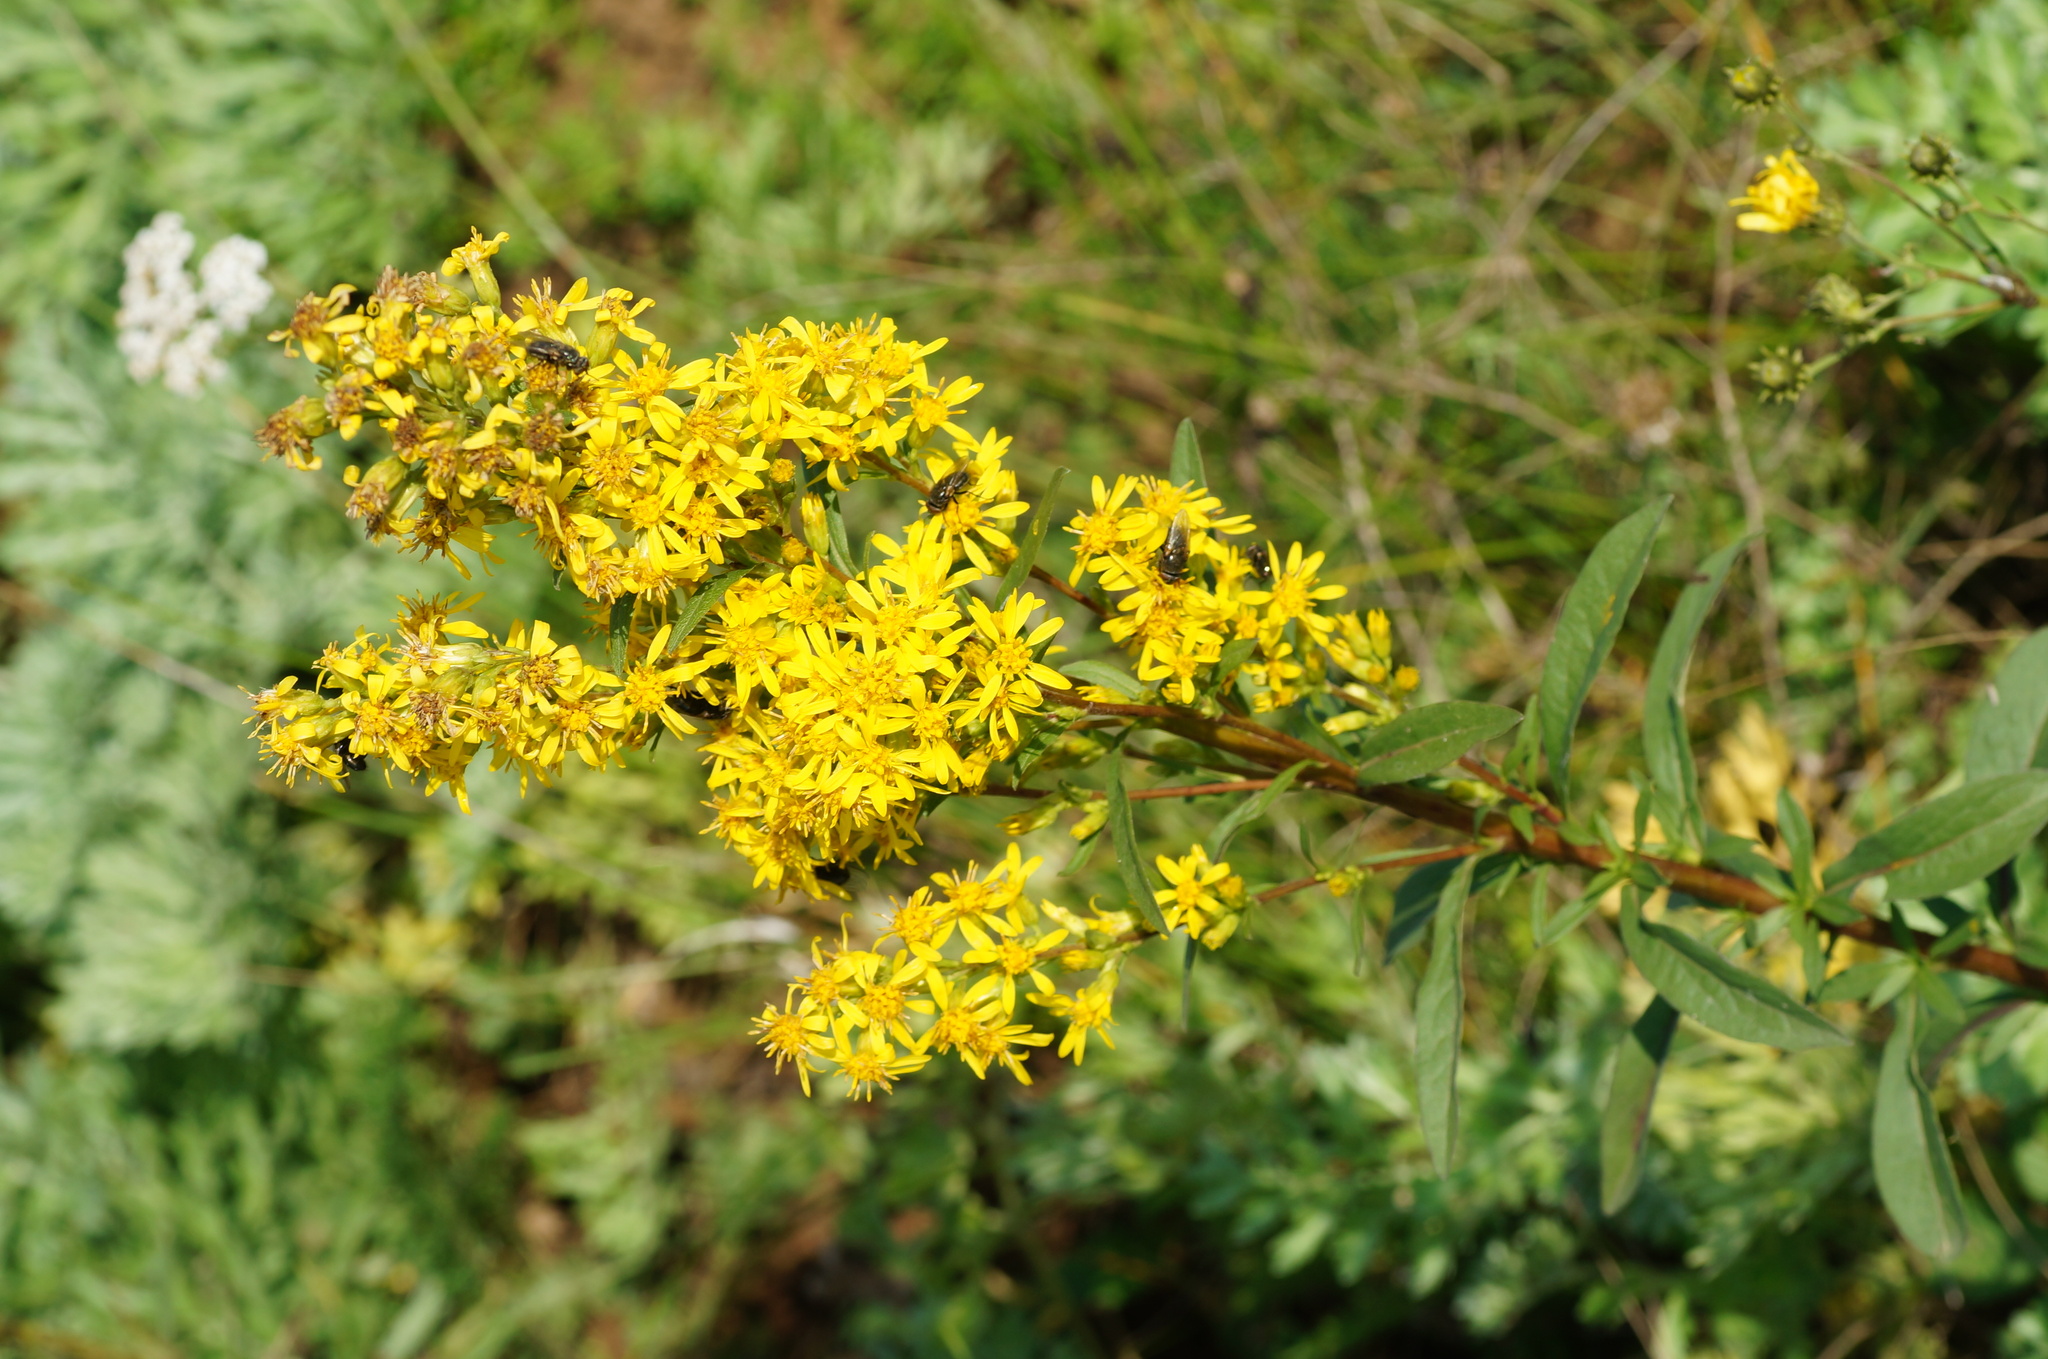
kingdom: Plantae
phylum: Tracheophyta
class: Magnoliopsida
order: Asterales
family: Asteraceae
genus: Solidago
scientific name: Solidago virgaurea
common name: Goldenrod
